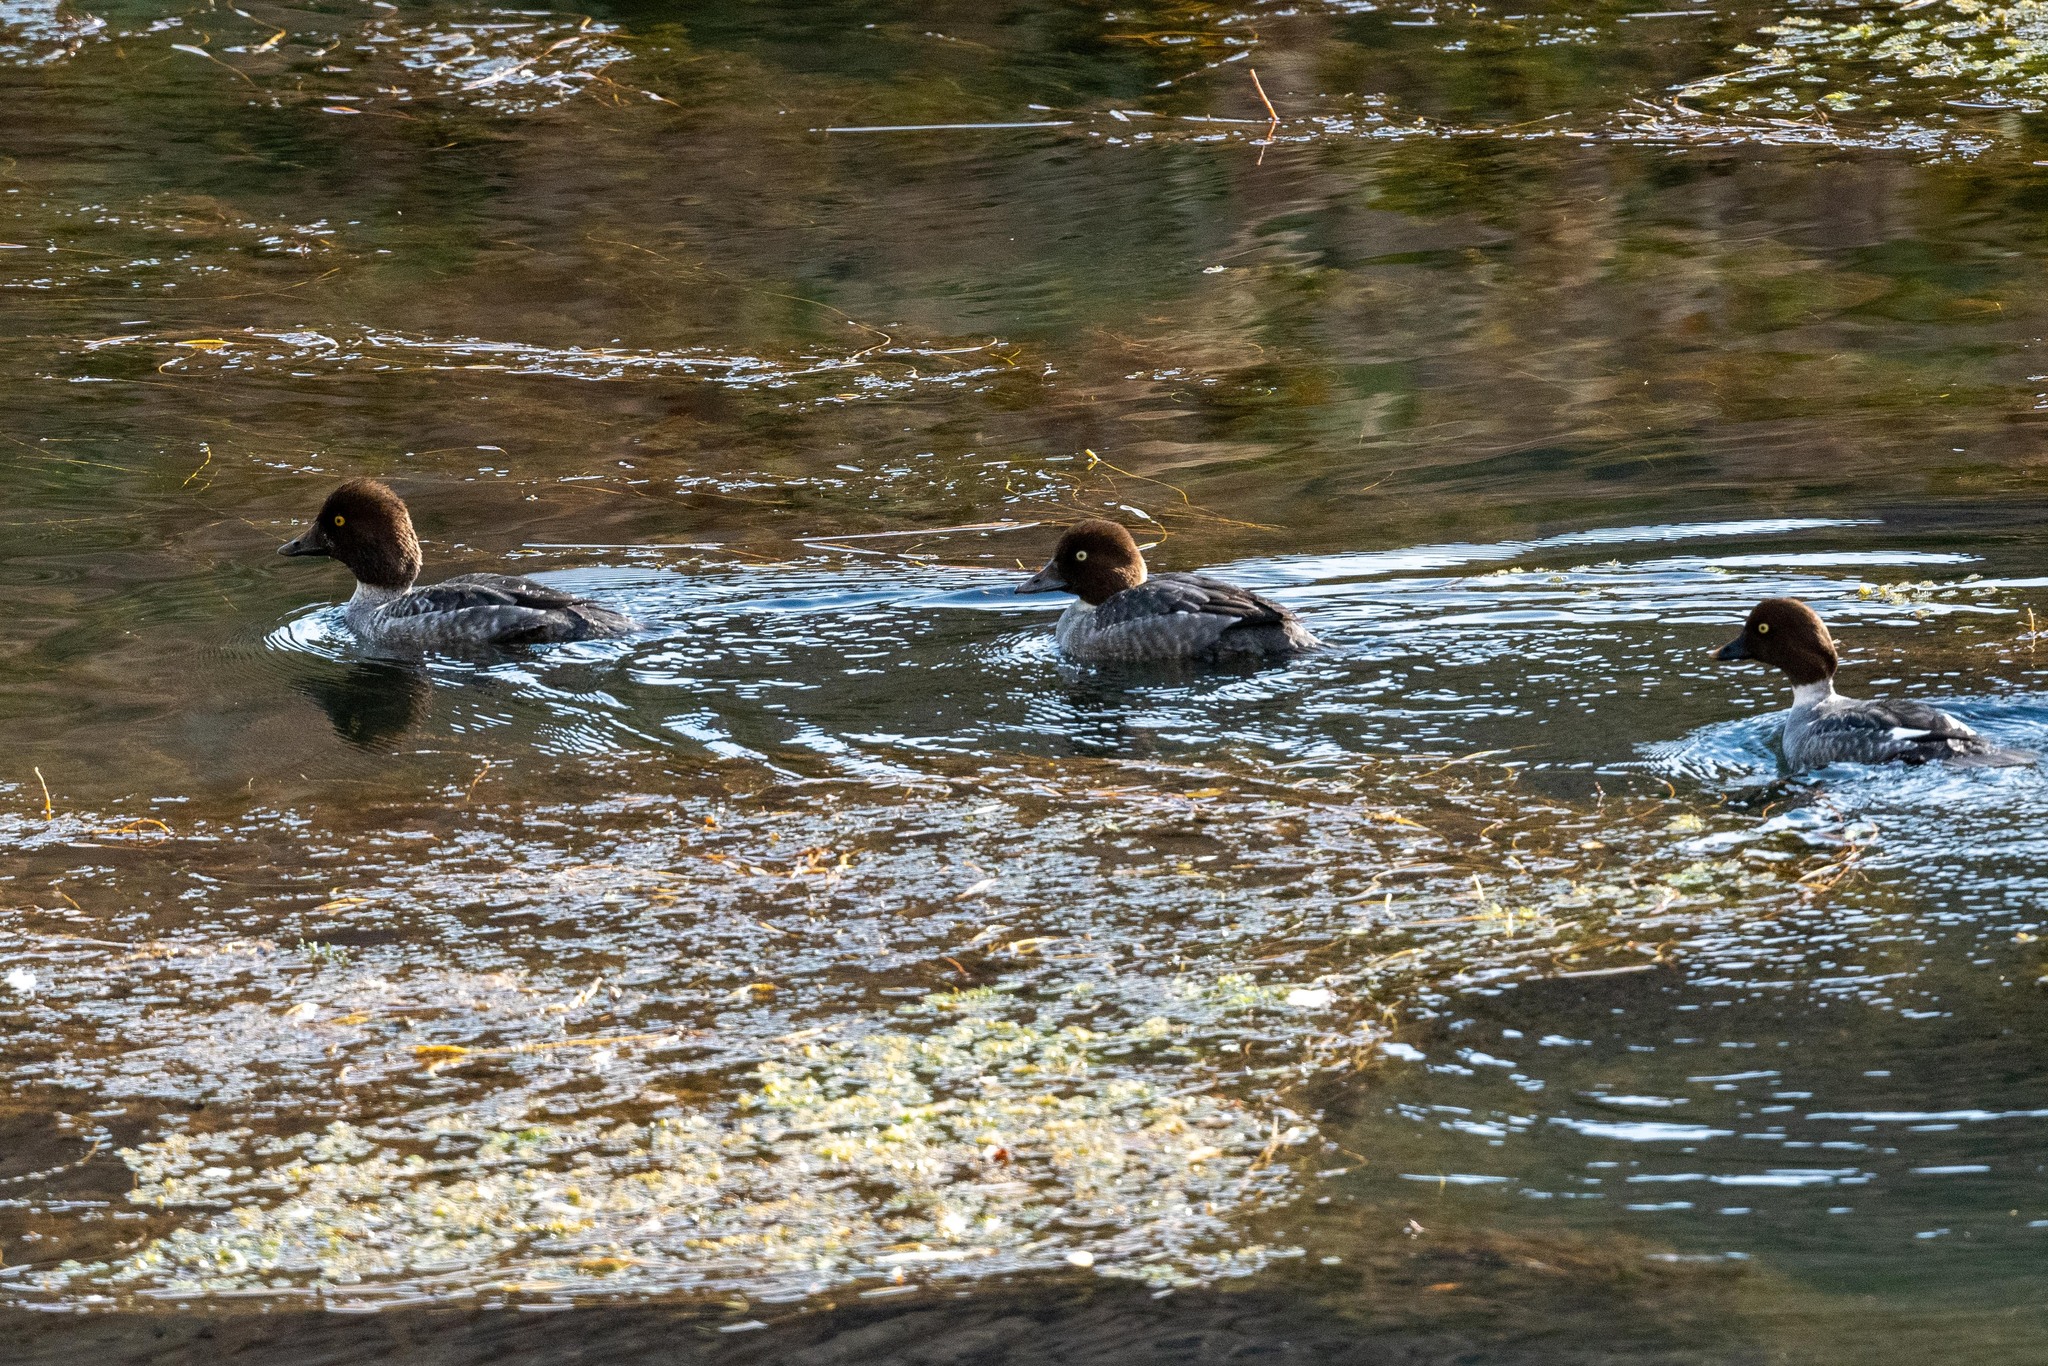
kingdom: Animalia
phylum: Chordata
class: Aves
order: Anseriformes
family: Anatidae
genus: Bucephala
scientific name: Bucephala clangula
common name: Common goldeneye
